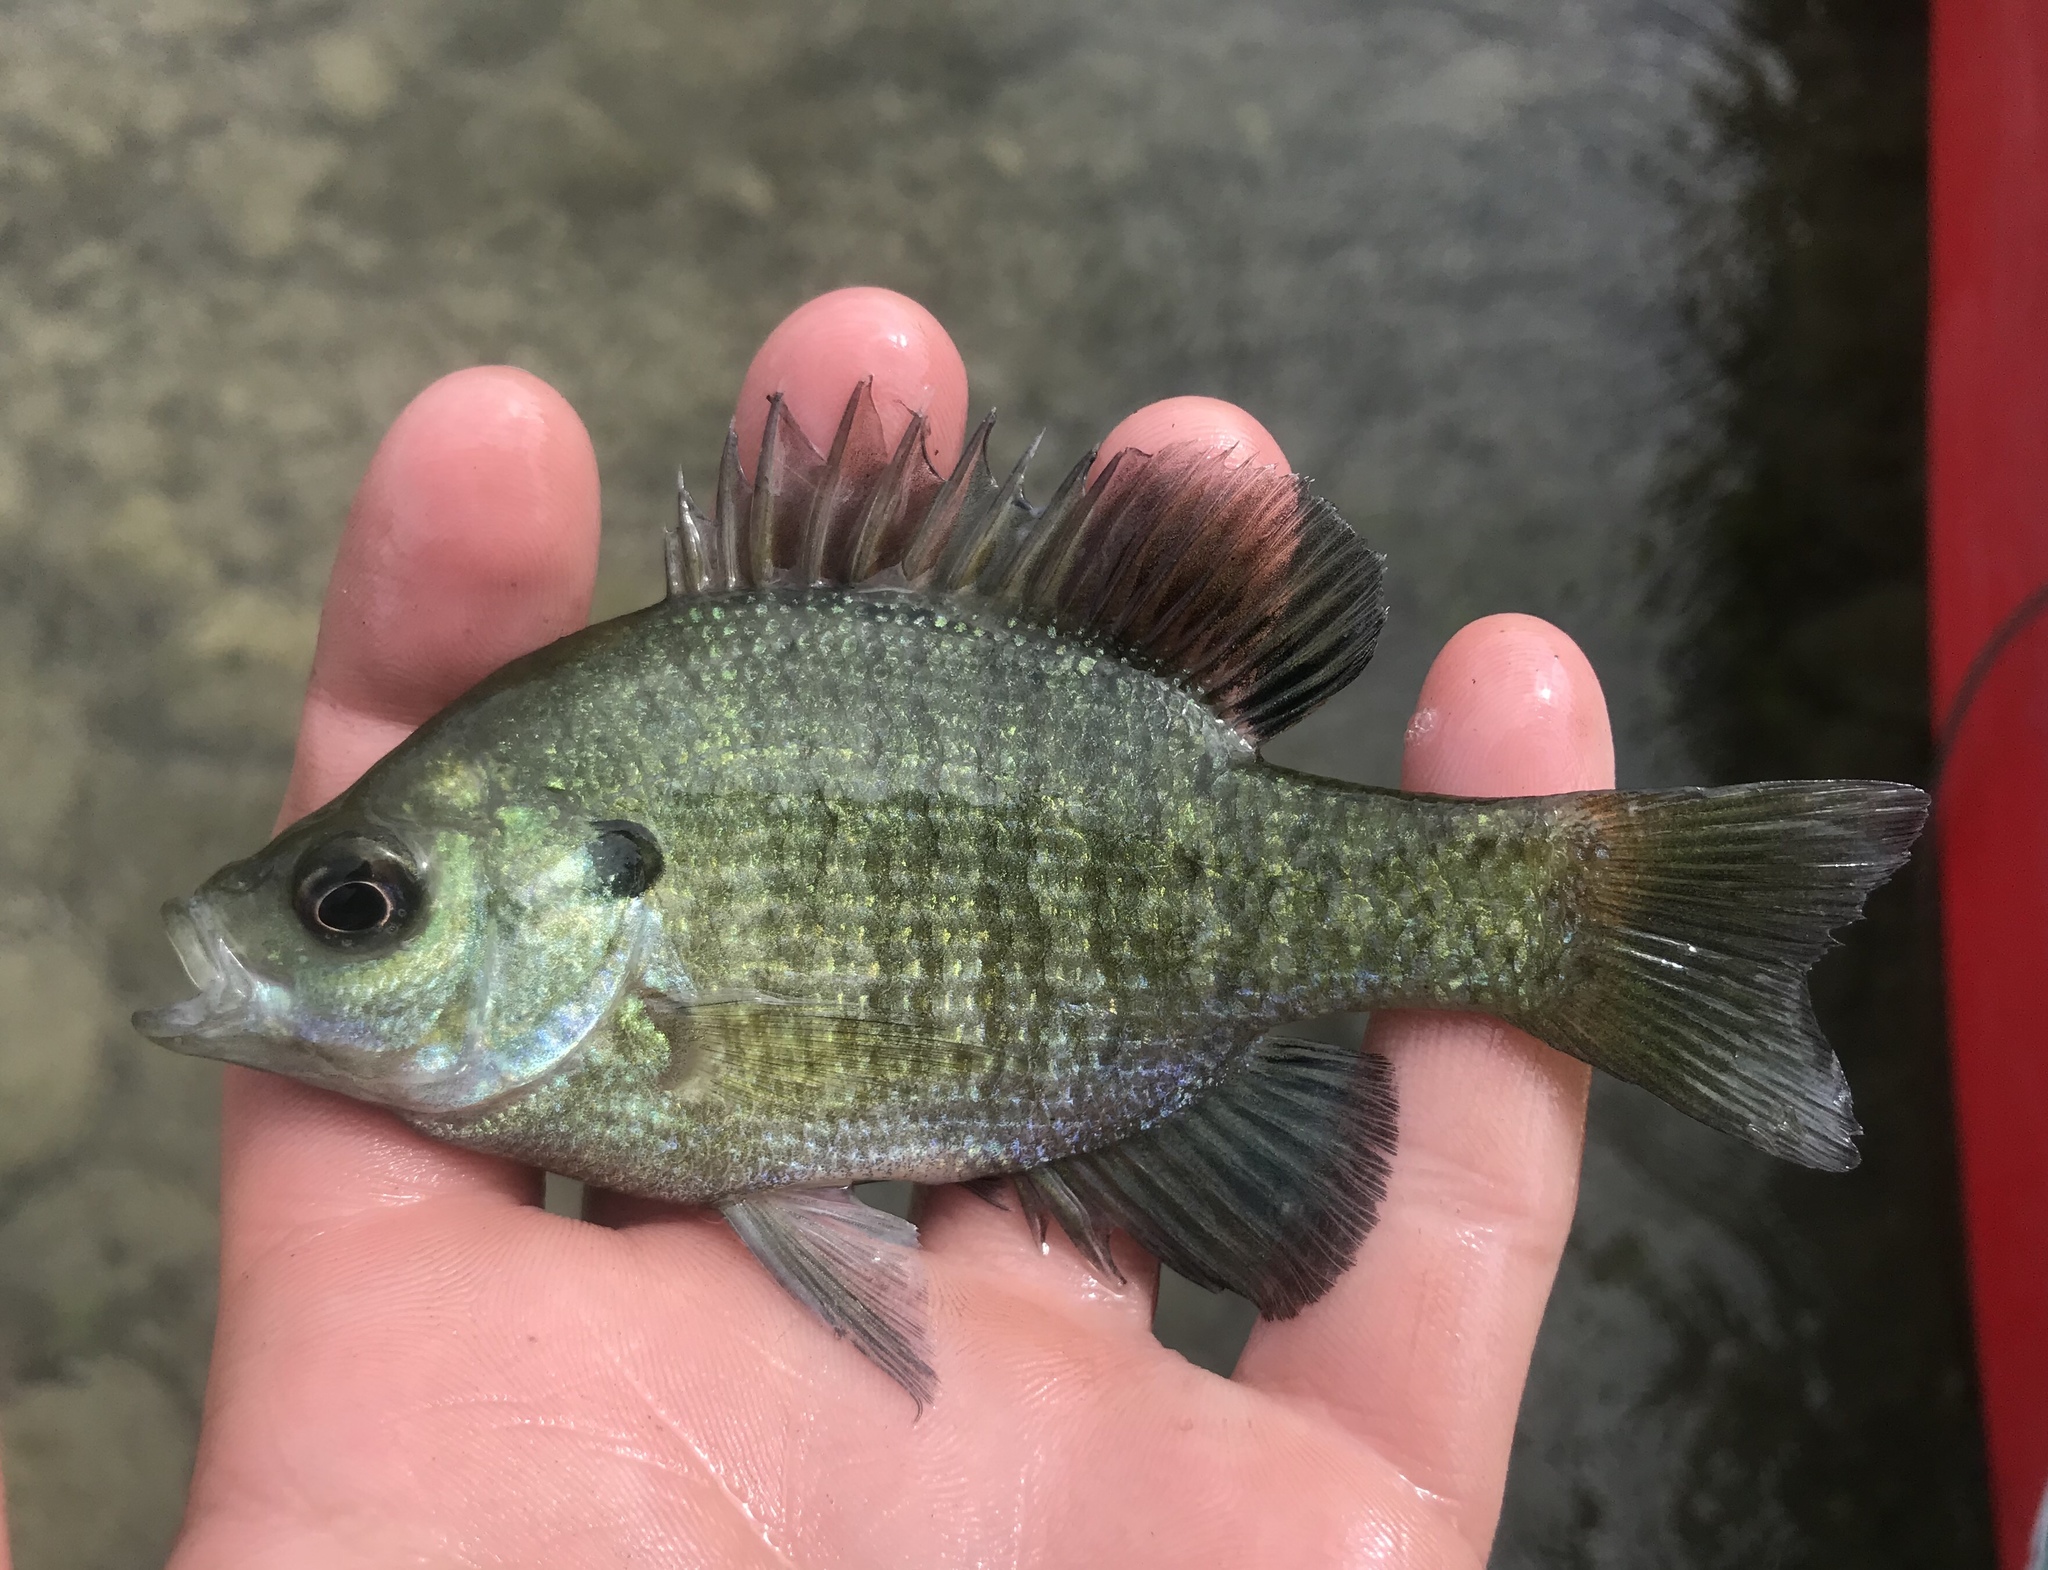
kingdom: Animalia
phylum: Chordata
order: Perciformes
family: Centrarchidae
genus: Lepomis
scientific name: Lepomis macrochirus
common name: Bluegill
